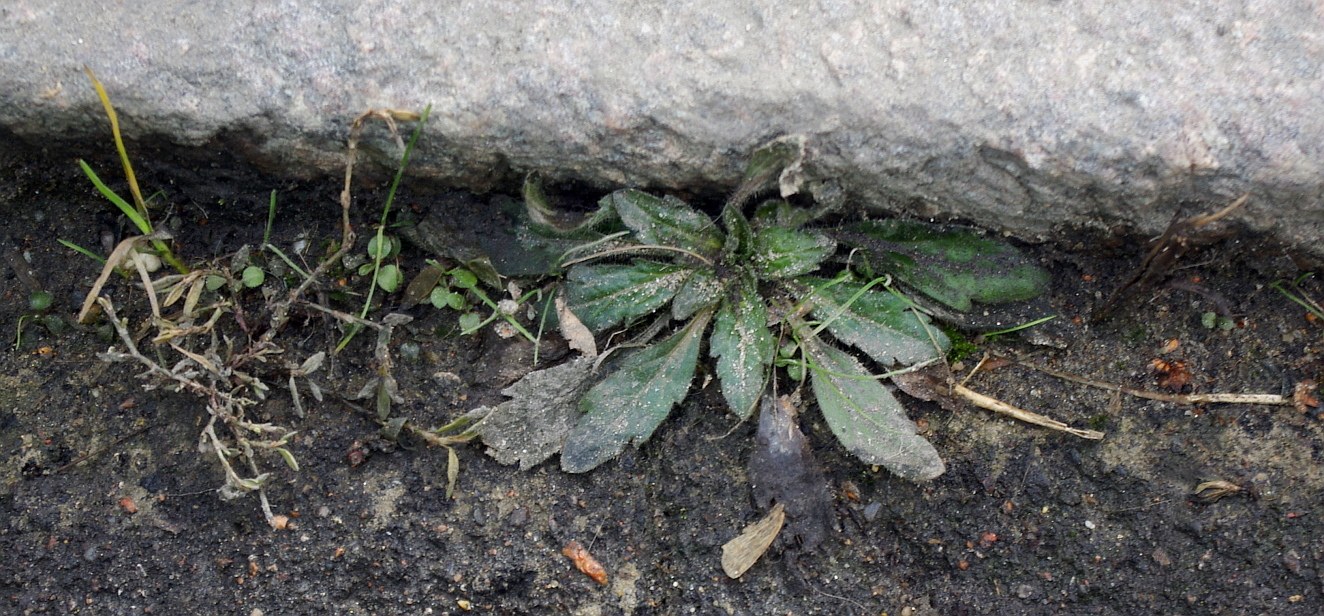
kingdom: Plantae
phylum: Tracheophyta
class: Magnoliopsida
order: Asterales
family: Asteraceae
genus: Erigeron
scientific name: Erigeron canadensis
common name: Canadian fleabane
